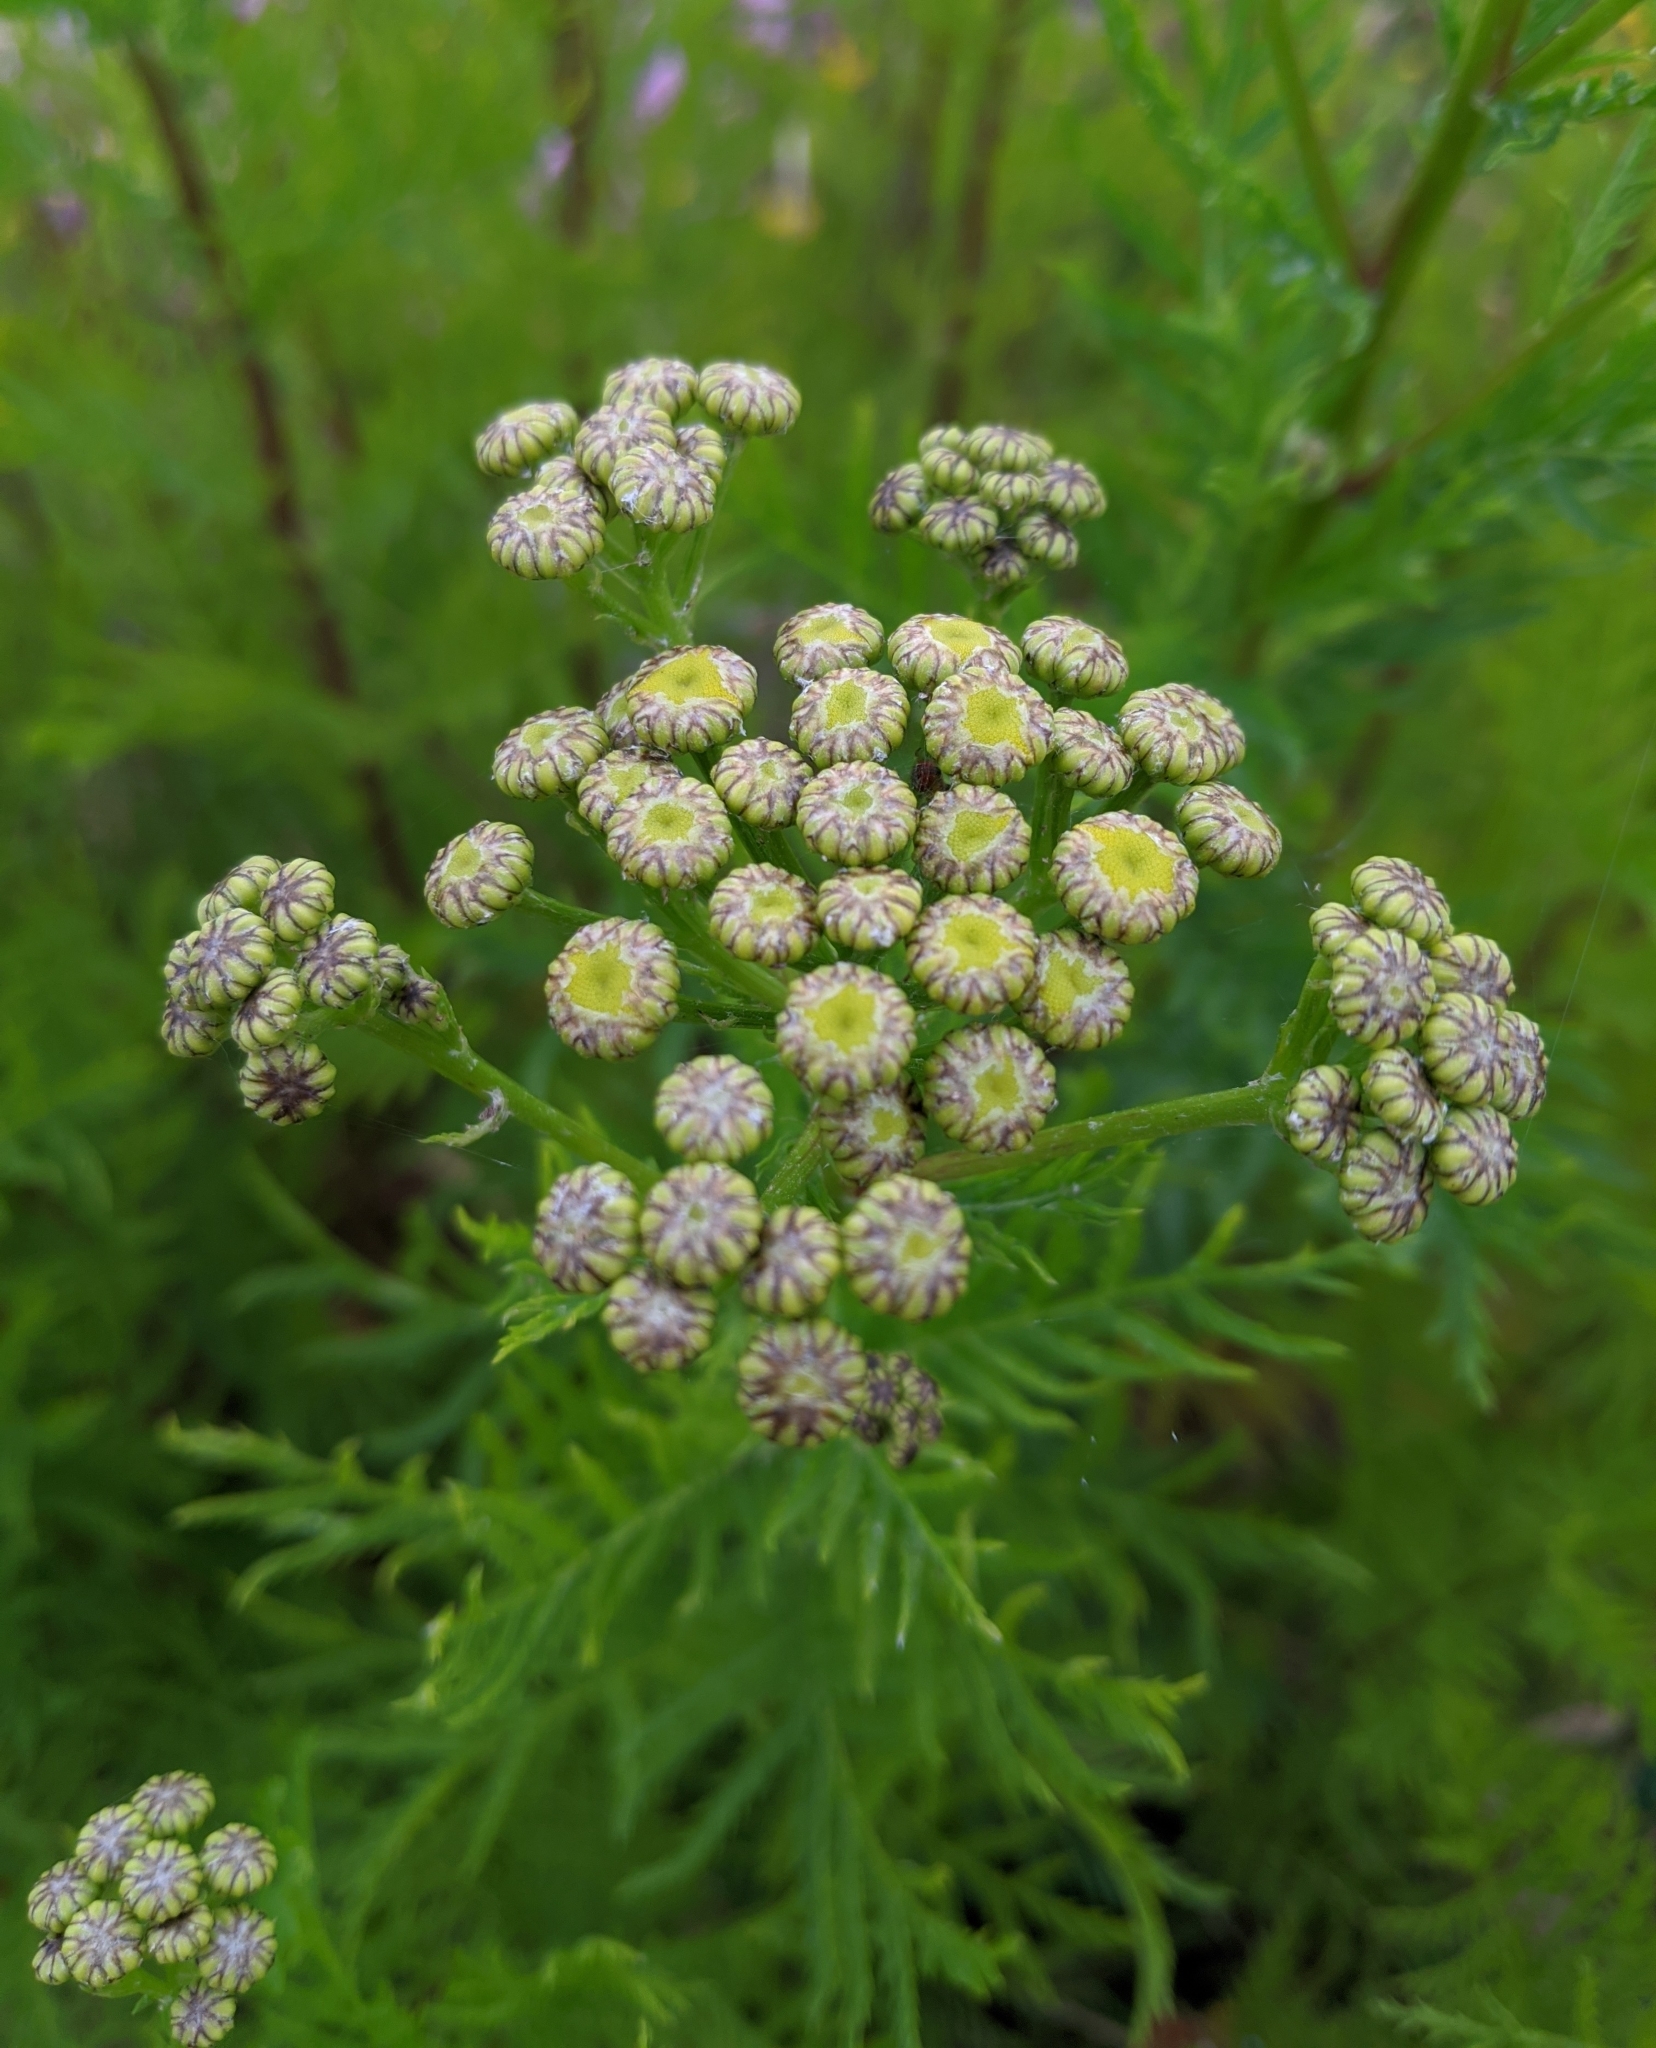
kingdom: Plantae
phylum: Tracheophyta
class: Magnoliopsida
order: Asterales
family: Asteraceae
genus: Tanacetum
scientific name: Tanacetum vulgare
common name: Common tansy
